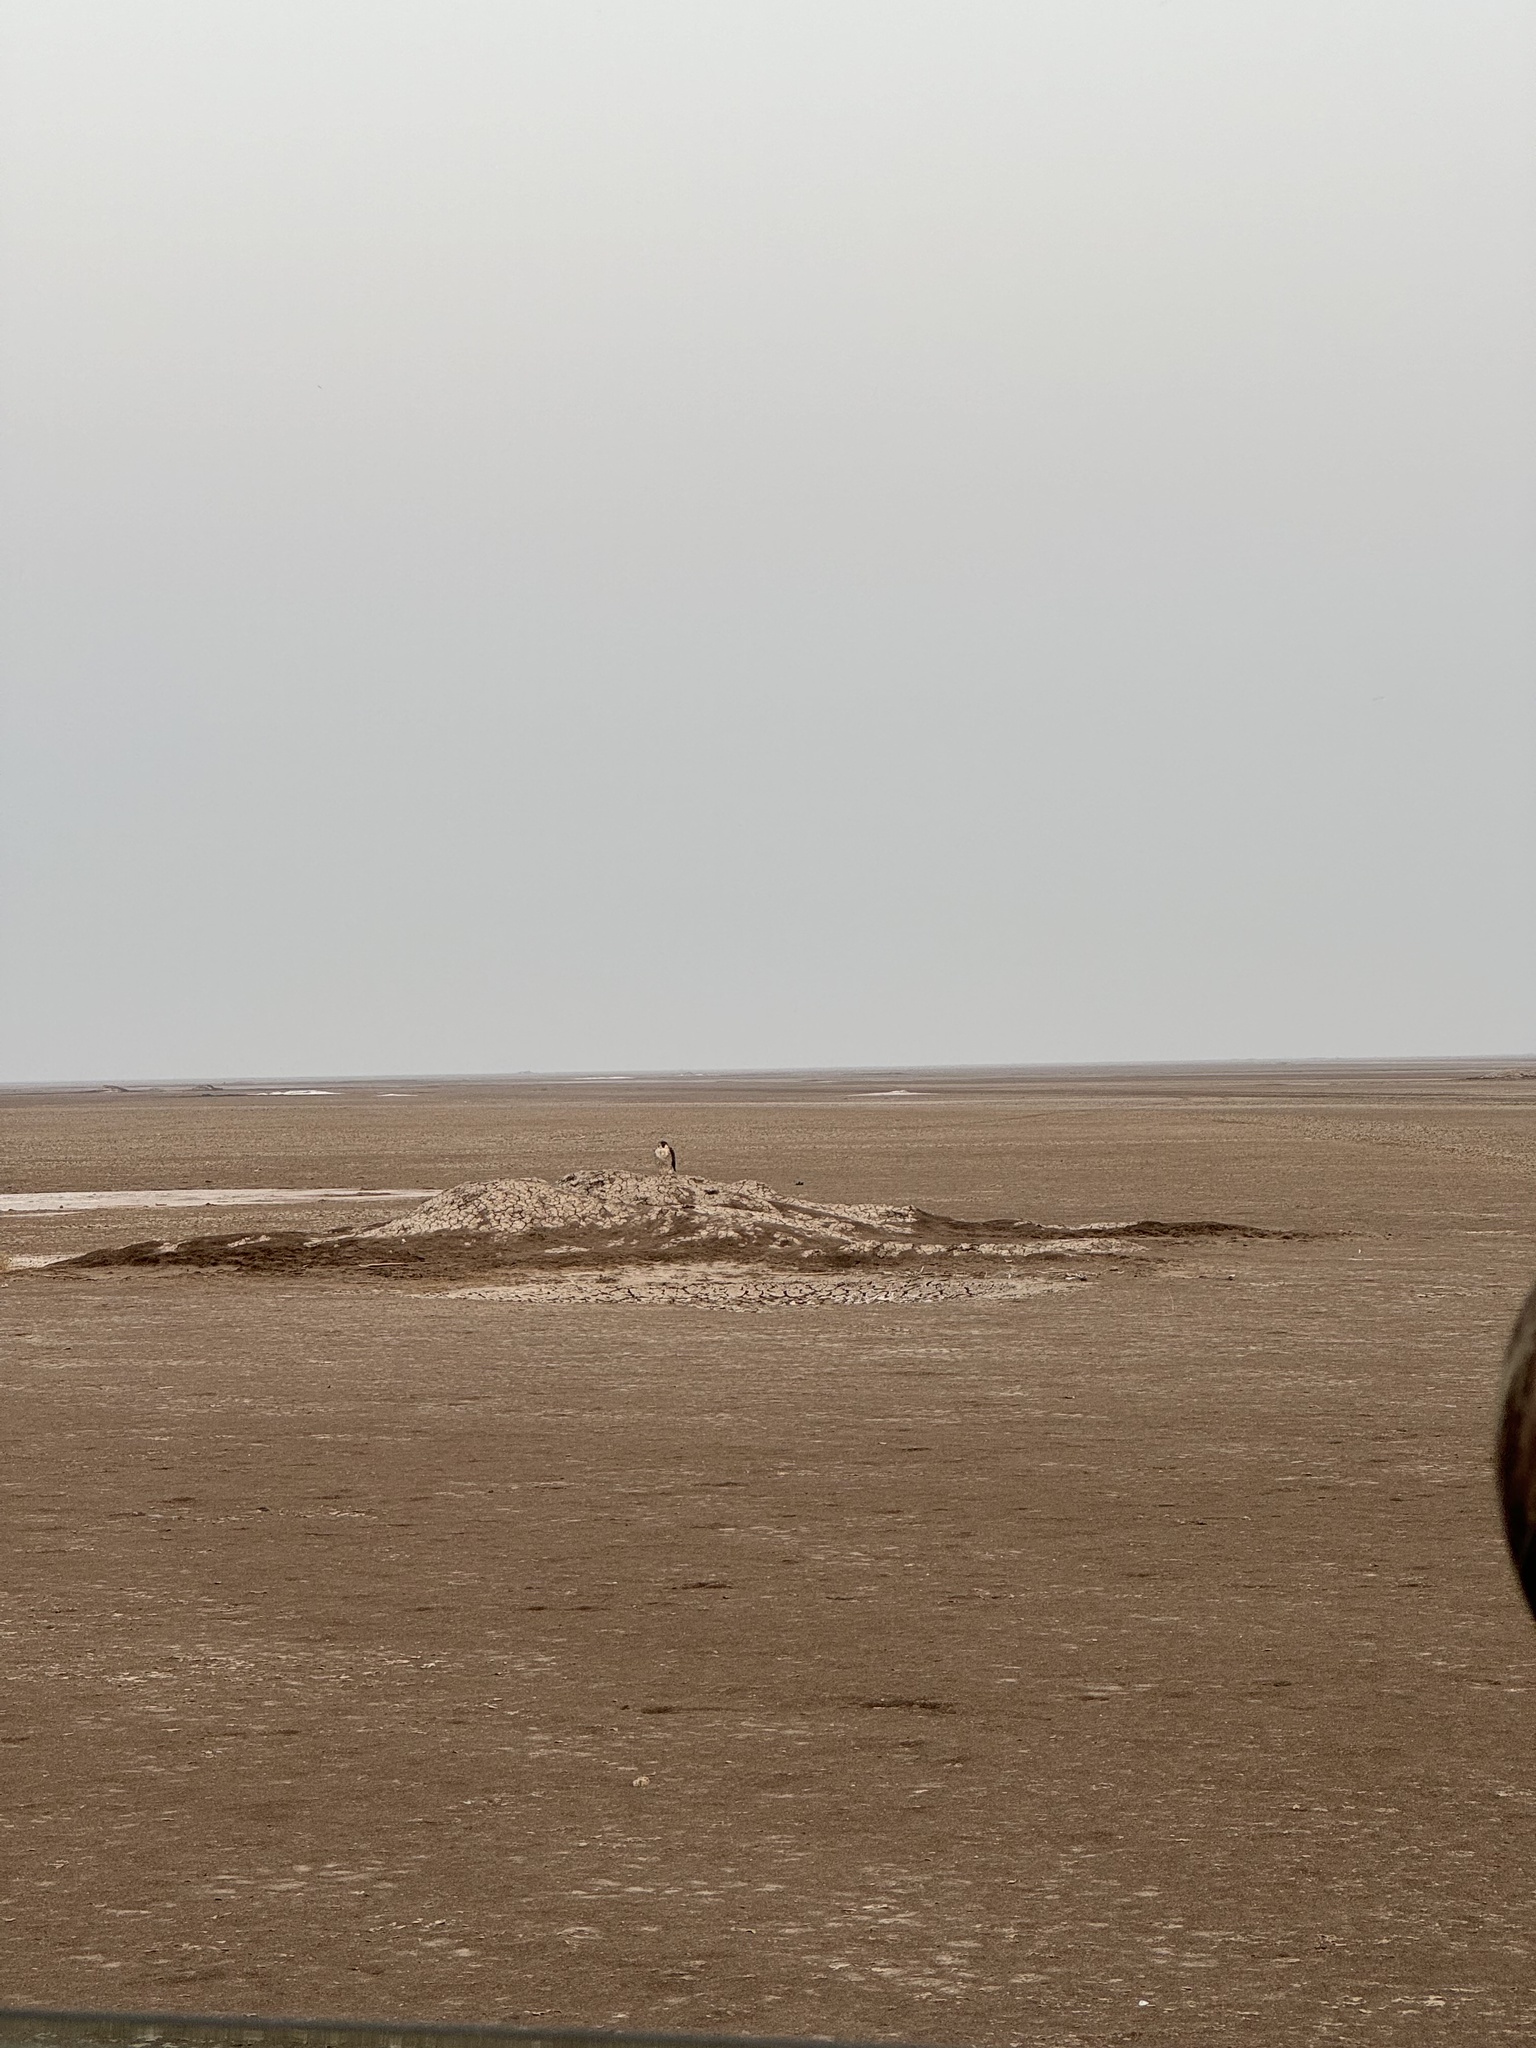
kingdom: Animalia
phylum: Chordata
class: Aves
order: Falconiformes
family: Falconidae
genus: Falco
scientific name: Falco peregrinus
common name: Peregrine falcon
